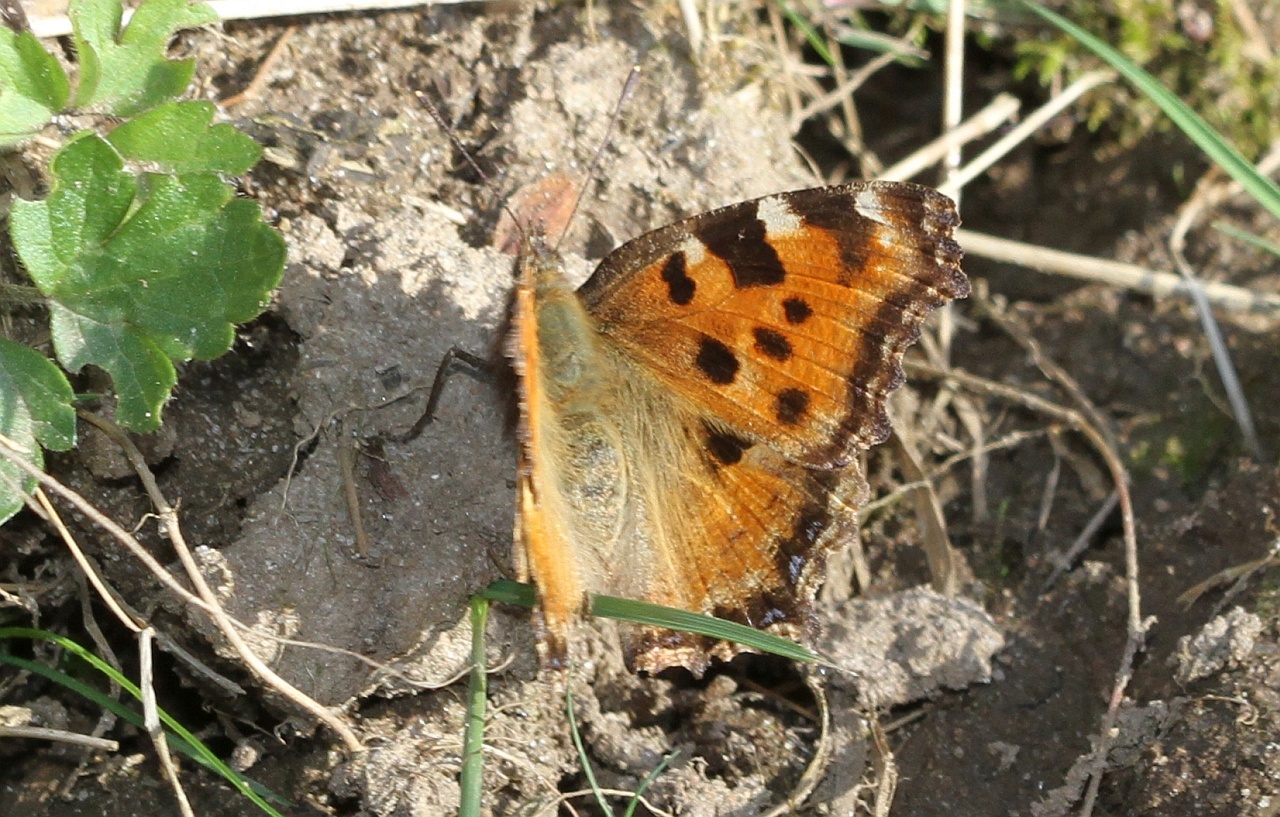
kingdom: Animalia
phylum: Arthropoda
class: Insecta
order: Lepidoptera
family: Nymphalidae
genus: Nymphalis
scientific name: Nymphalis polychloros
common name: Large tortoiseshell
